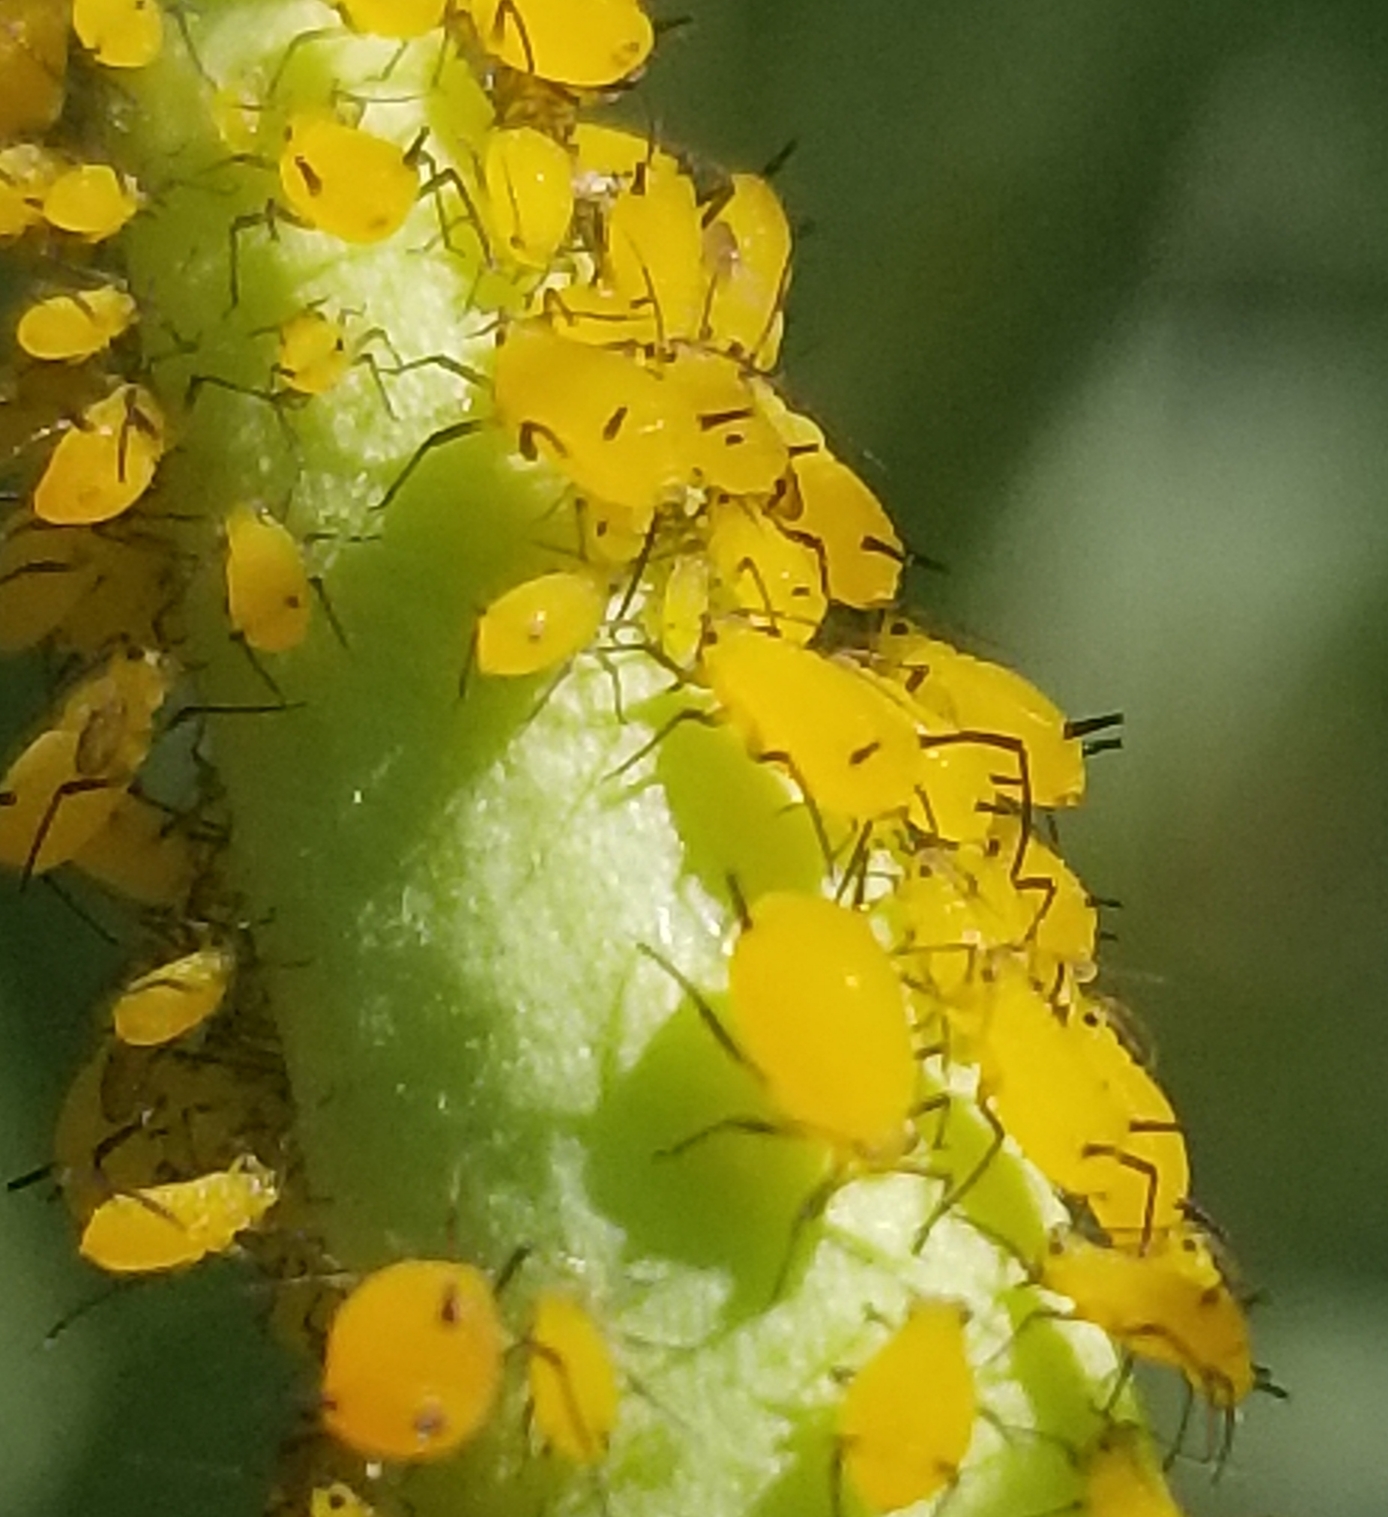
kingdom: Animalia
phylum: Arthropoda
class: Insecta
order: Hemiptera
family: Aphididae
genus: Aphis
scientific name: Aphis nerii
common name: Oleander aphid
